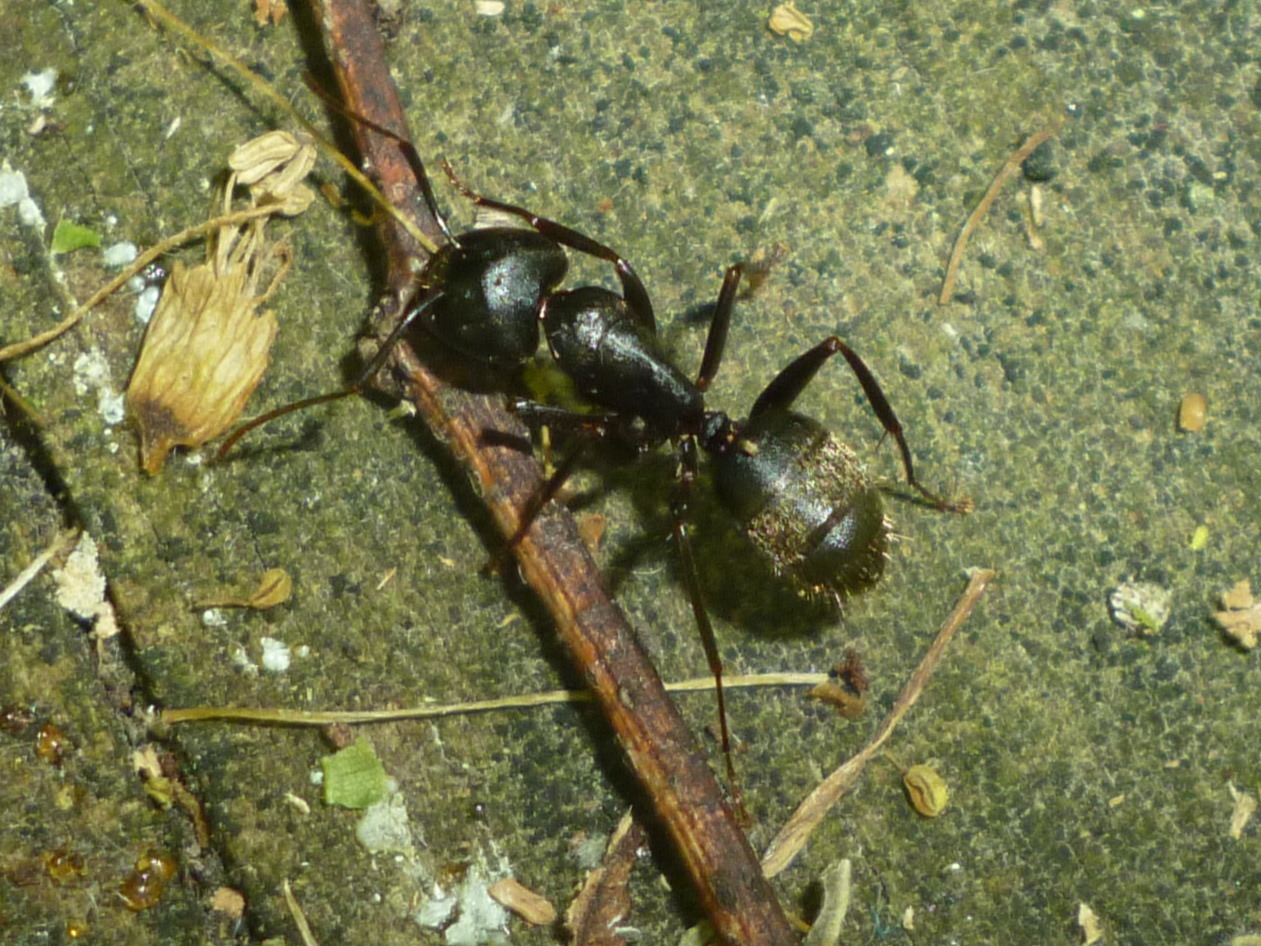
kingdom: Animalia
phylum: Arthropoda
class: Insecta
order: Hymenoptera
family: Formicidae
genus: Camponotus
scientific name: Camponotus pennsylvanicus
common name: Black carpenter ant
